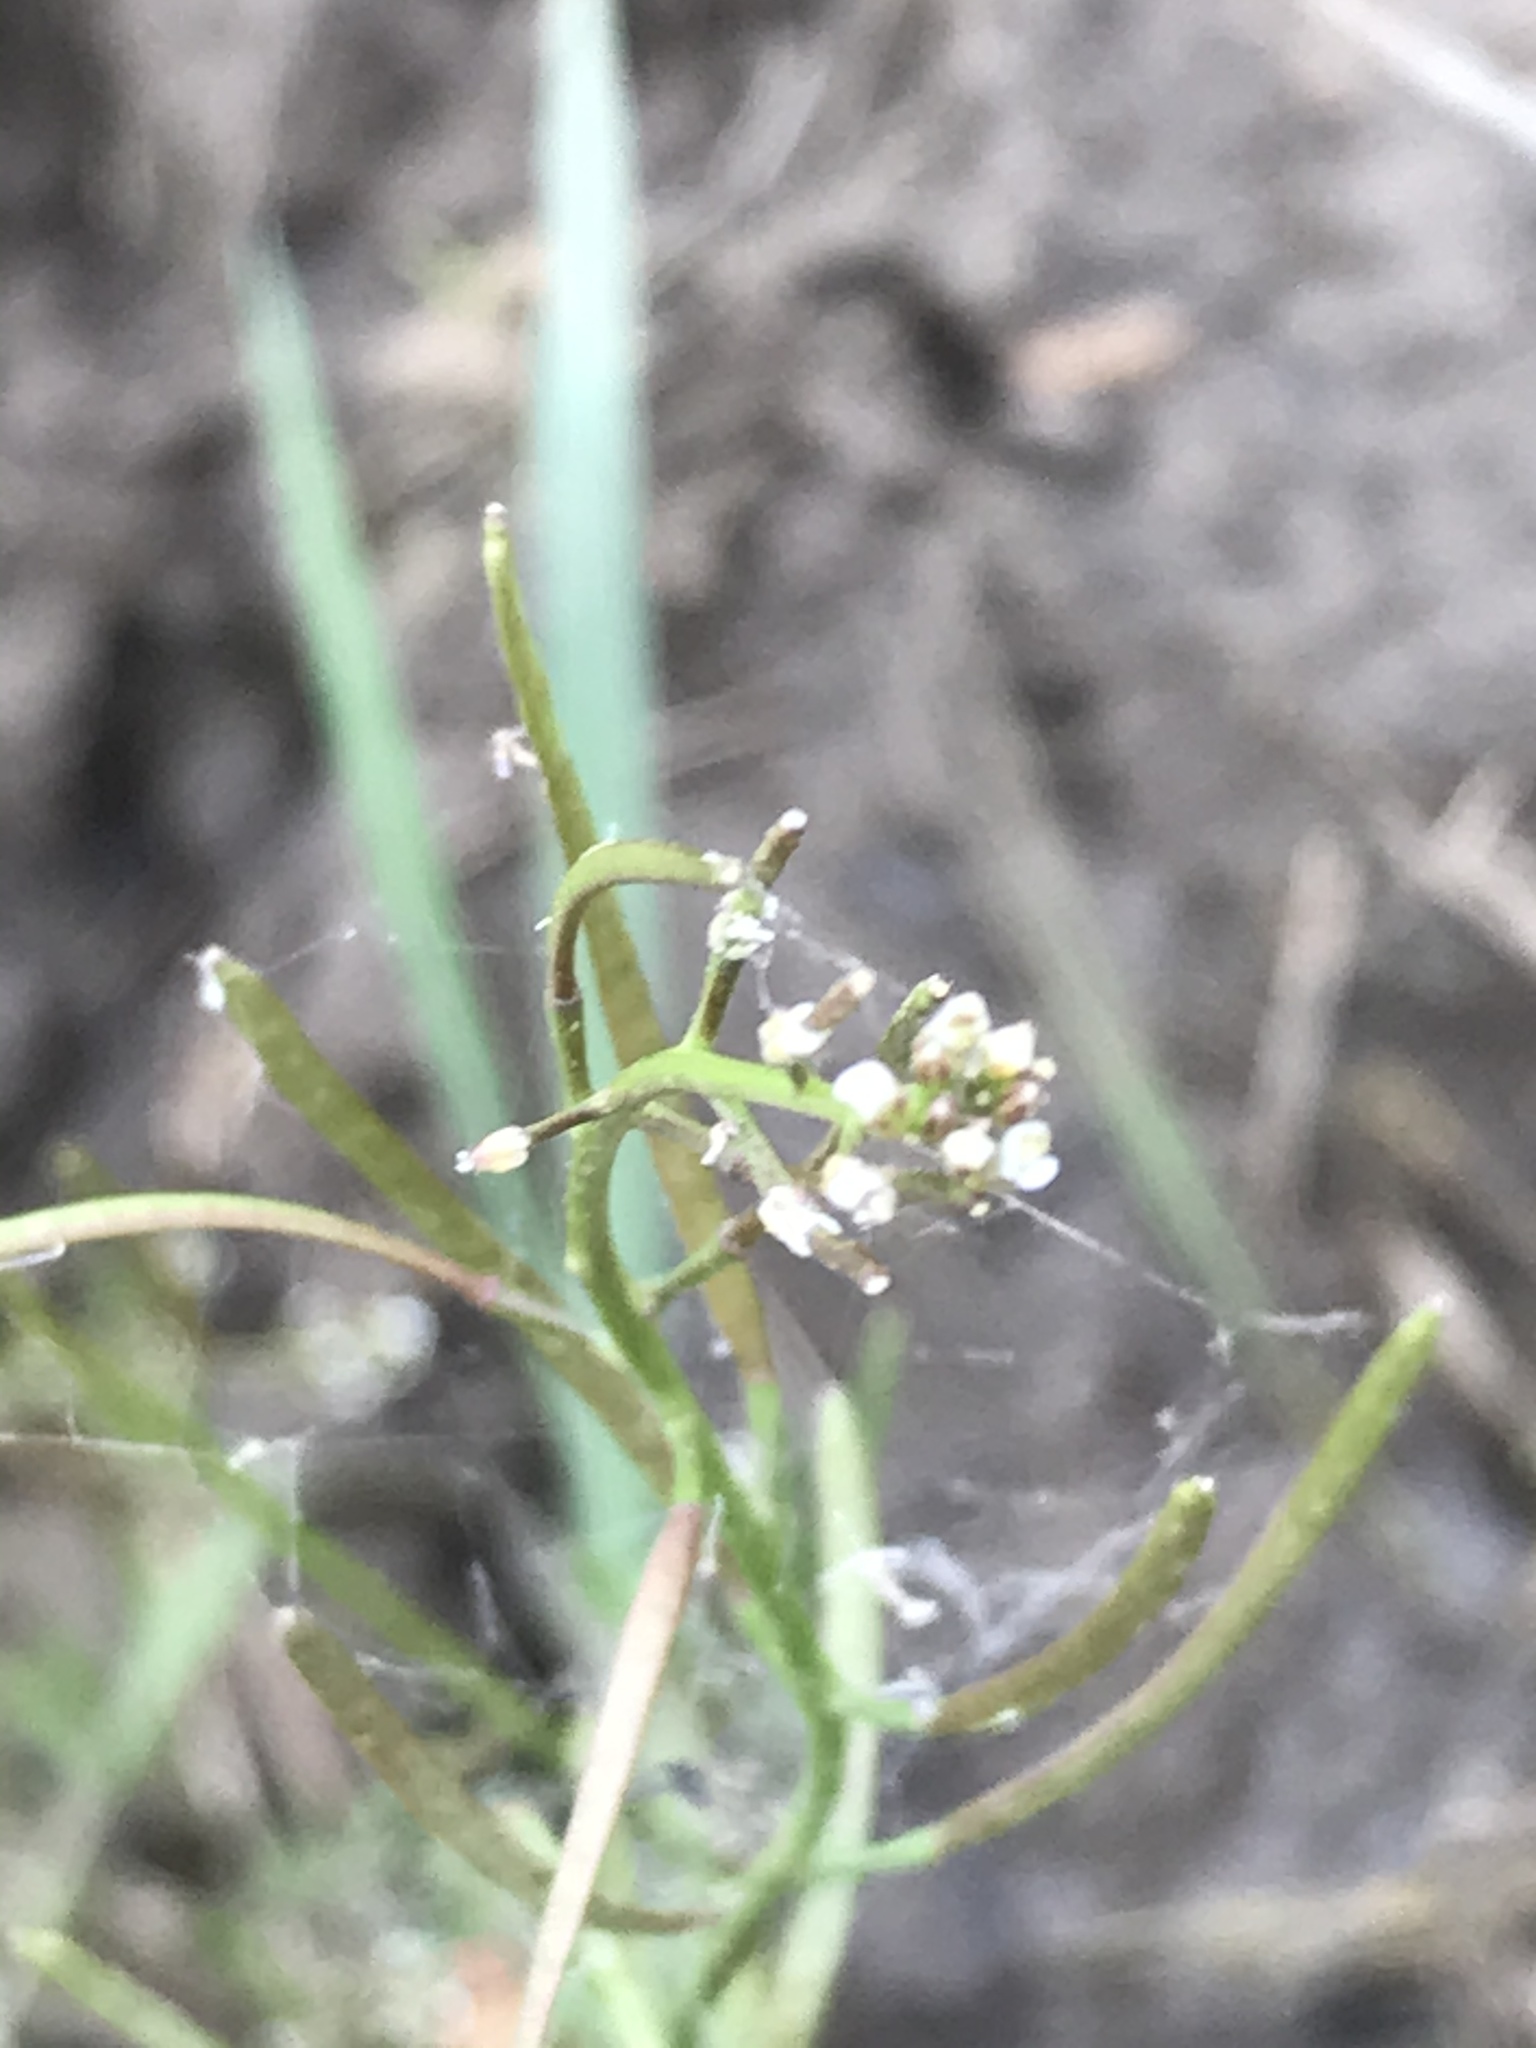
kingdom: Plantae
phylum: Tracheophyta
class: Magnoliopsida
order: Brassicales
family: Brassicaceae
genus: Planodes
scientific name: Planodes virginicum
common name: Virginia cress
